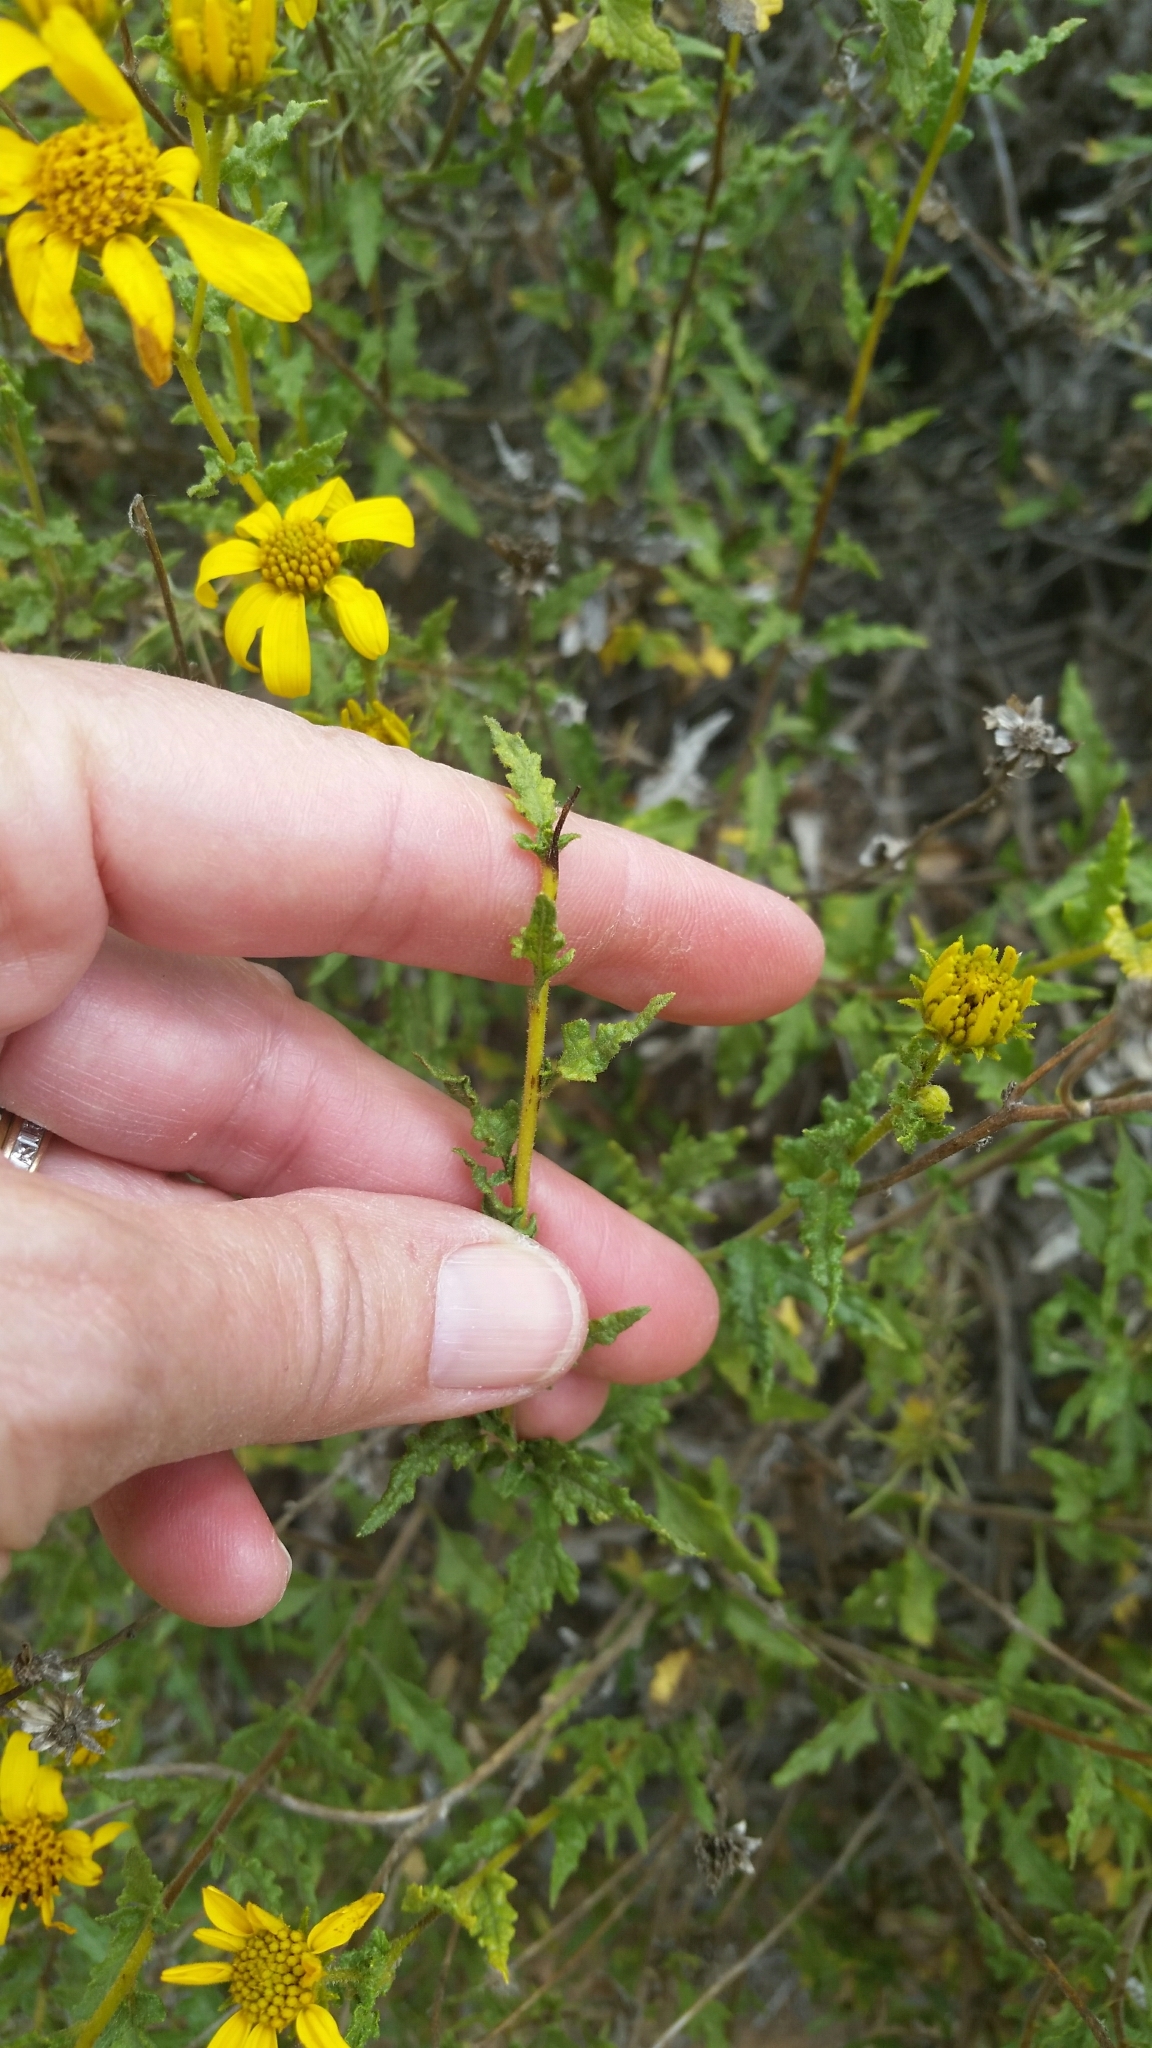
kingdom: Plantae
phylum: Tracheophyta
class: Magnoliopsida
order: Asterales
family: Asteraceae
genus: Bahiopsis
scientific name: Bahiopsis laciniata
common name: San diego county viguiera
